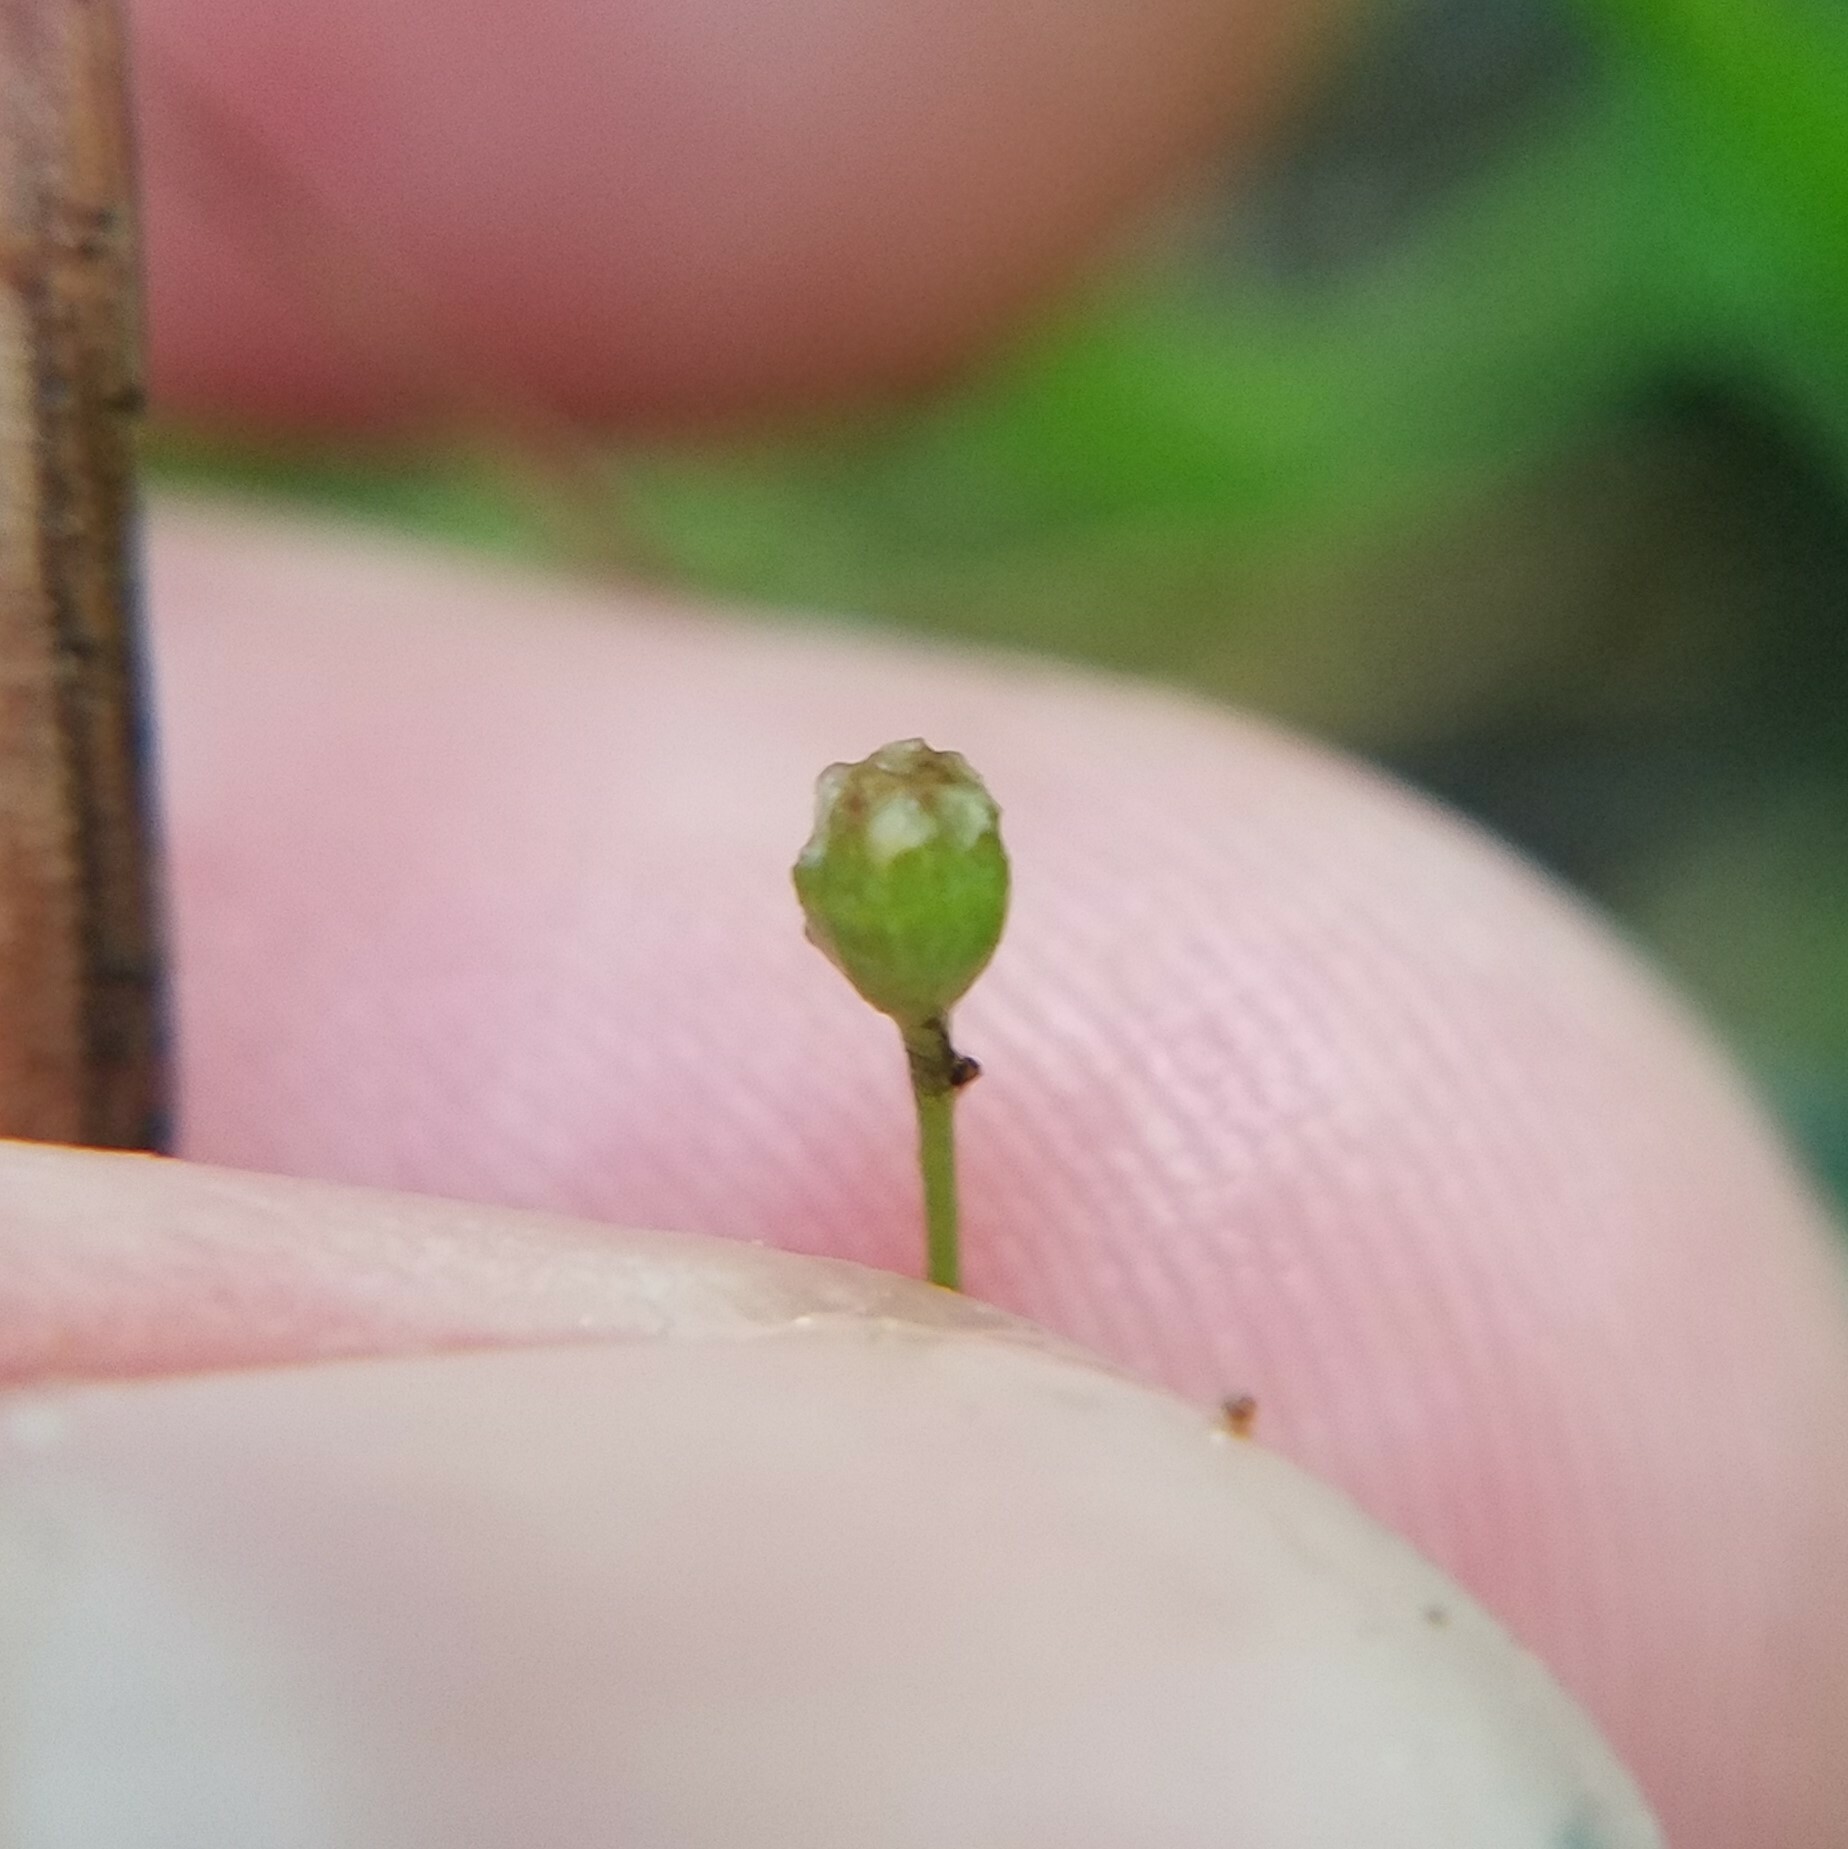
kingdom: Plantae
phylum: Tracheophyta
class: Magnoliopsida
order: Ericales
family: Primulaceae
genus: Samolus
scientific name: Samolus parviflorus
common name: False water pimpernel
